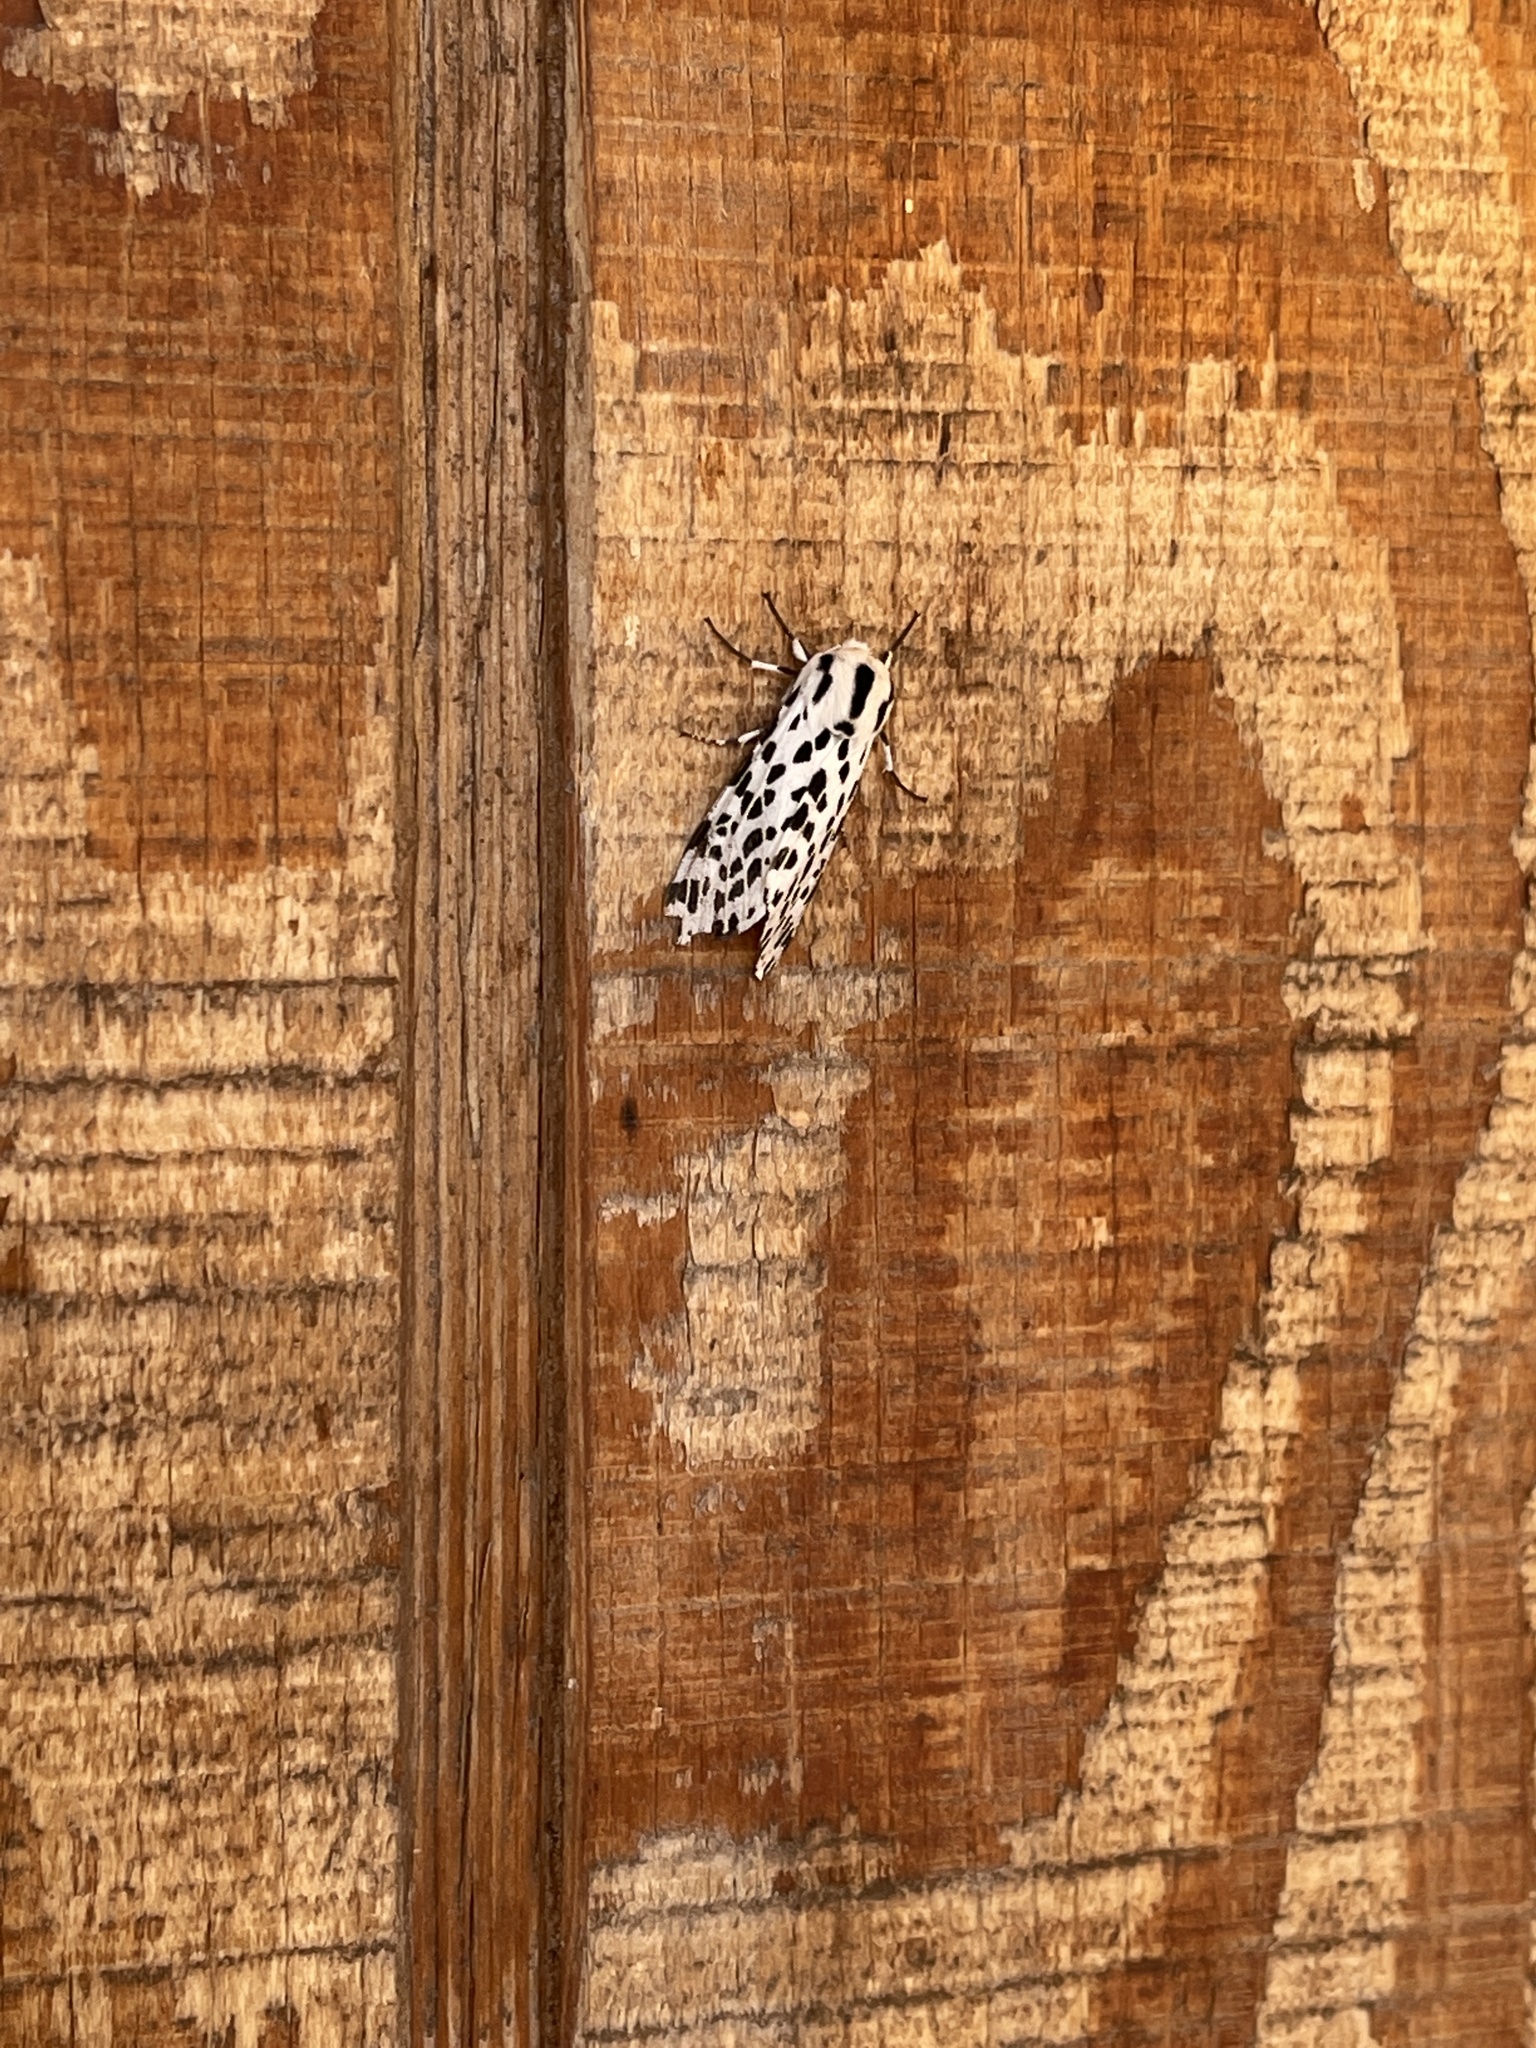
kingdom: Animalia
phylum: Arthropoda
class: Insecta
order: Lepidoptera
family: Erebidae
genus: Hypercompe
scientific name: Hypercompe permaculata
